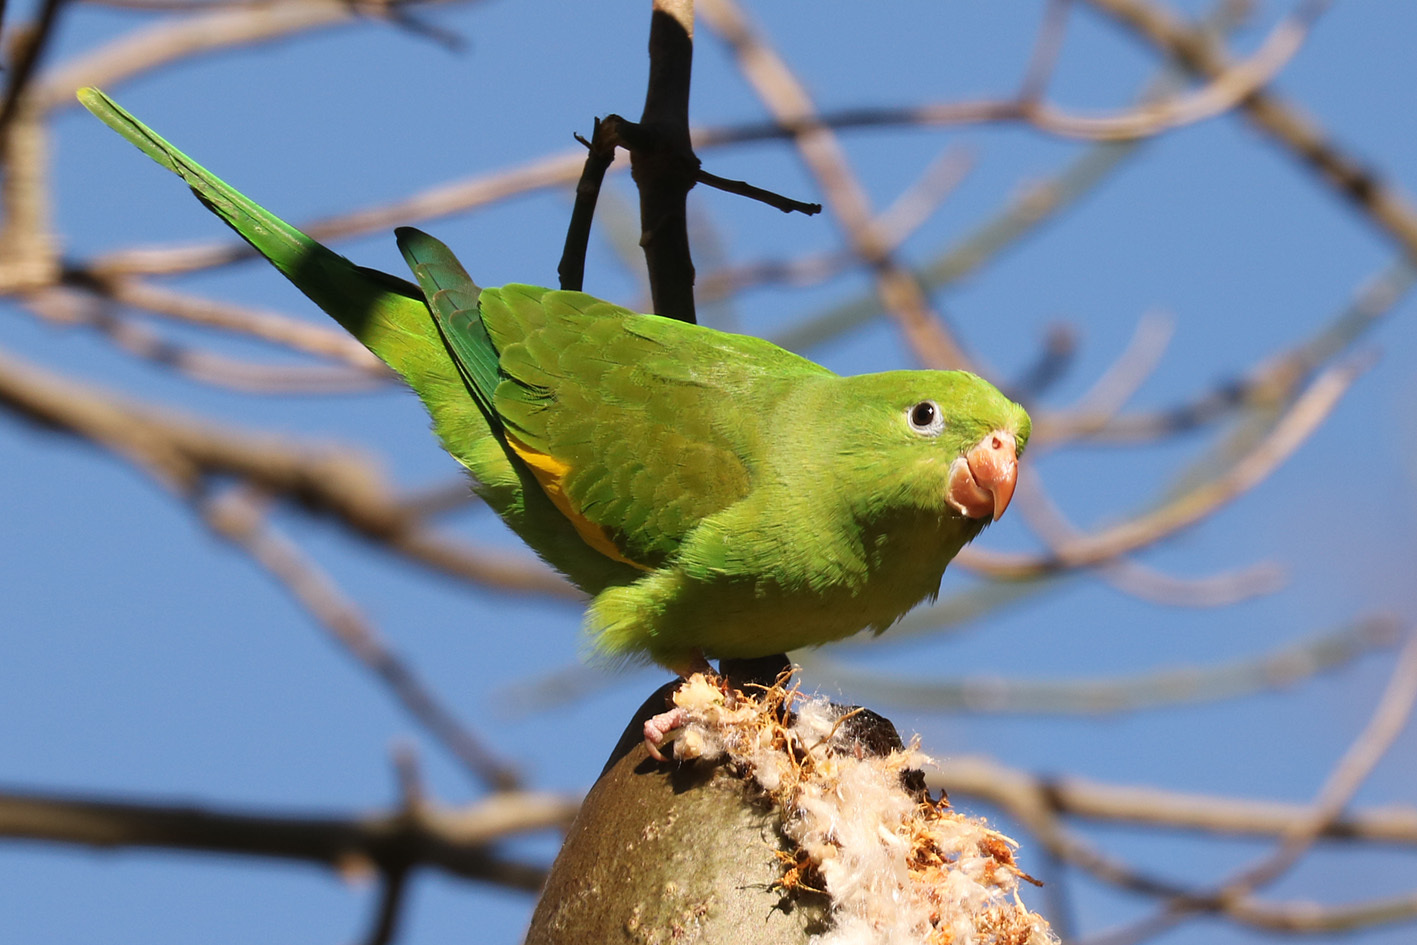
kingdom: Animalia
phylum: Chordata
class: Aves
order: Psittaciformes
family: Psittacidae
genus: Brotogeris
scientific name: Brotogeris chiriri
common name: Yellow-chevroned parakeet
